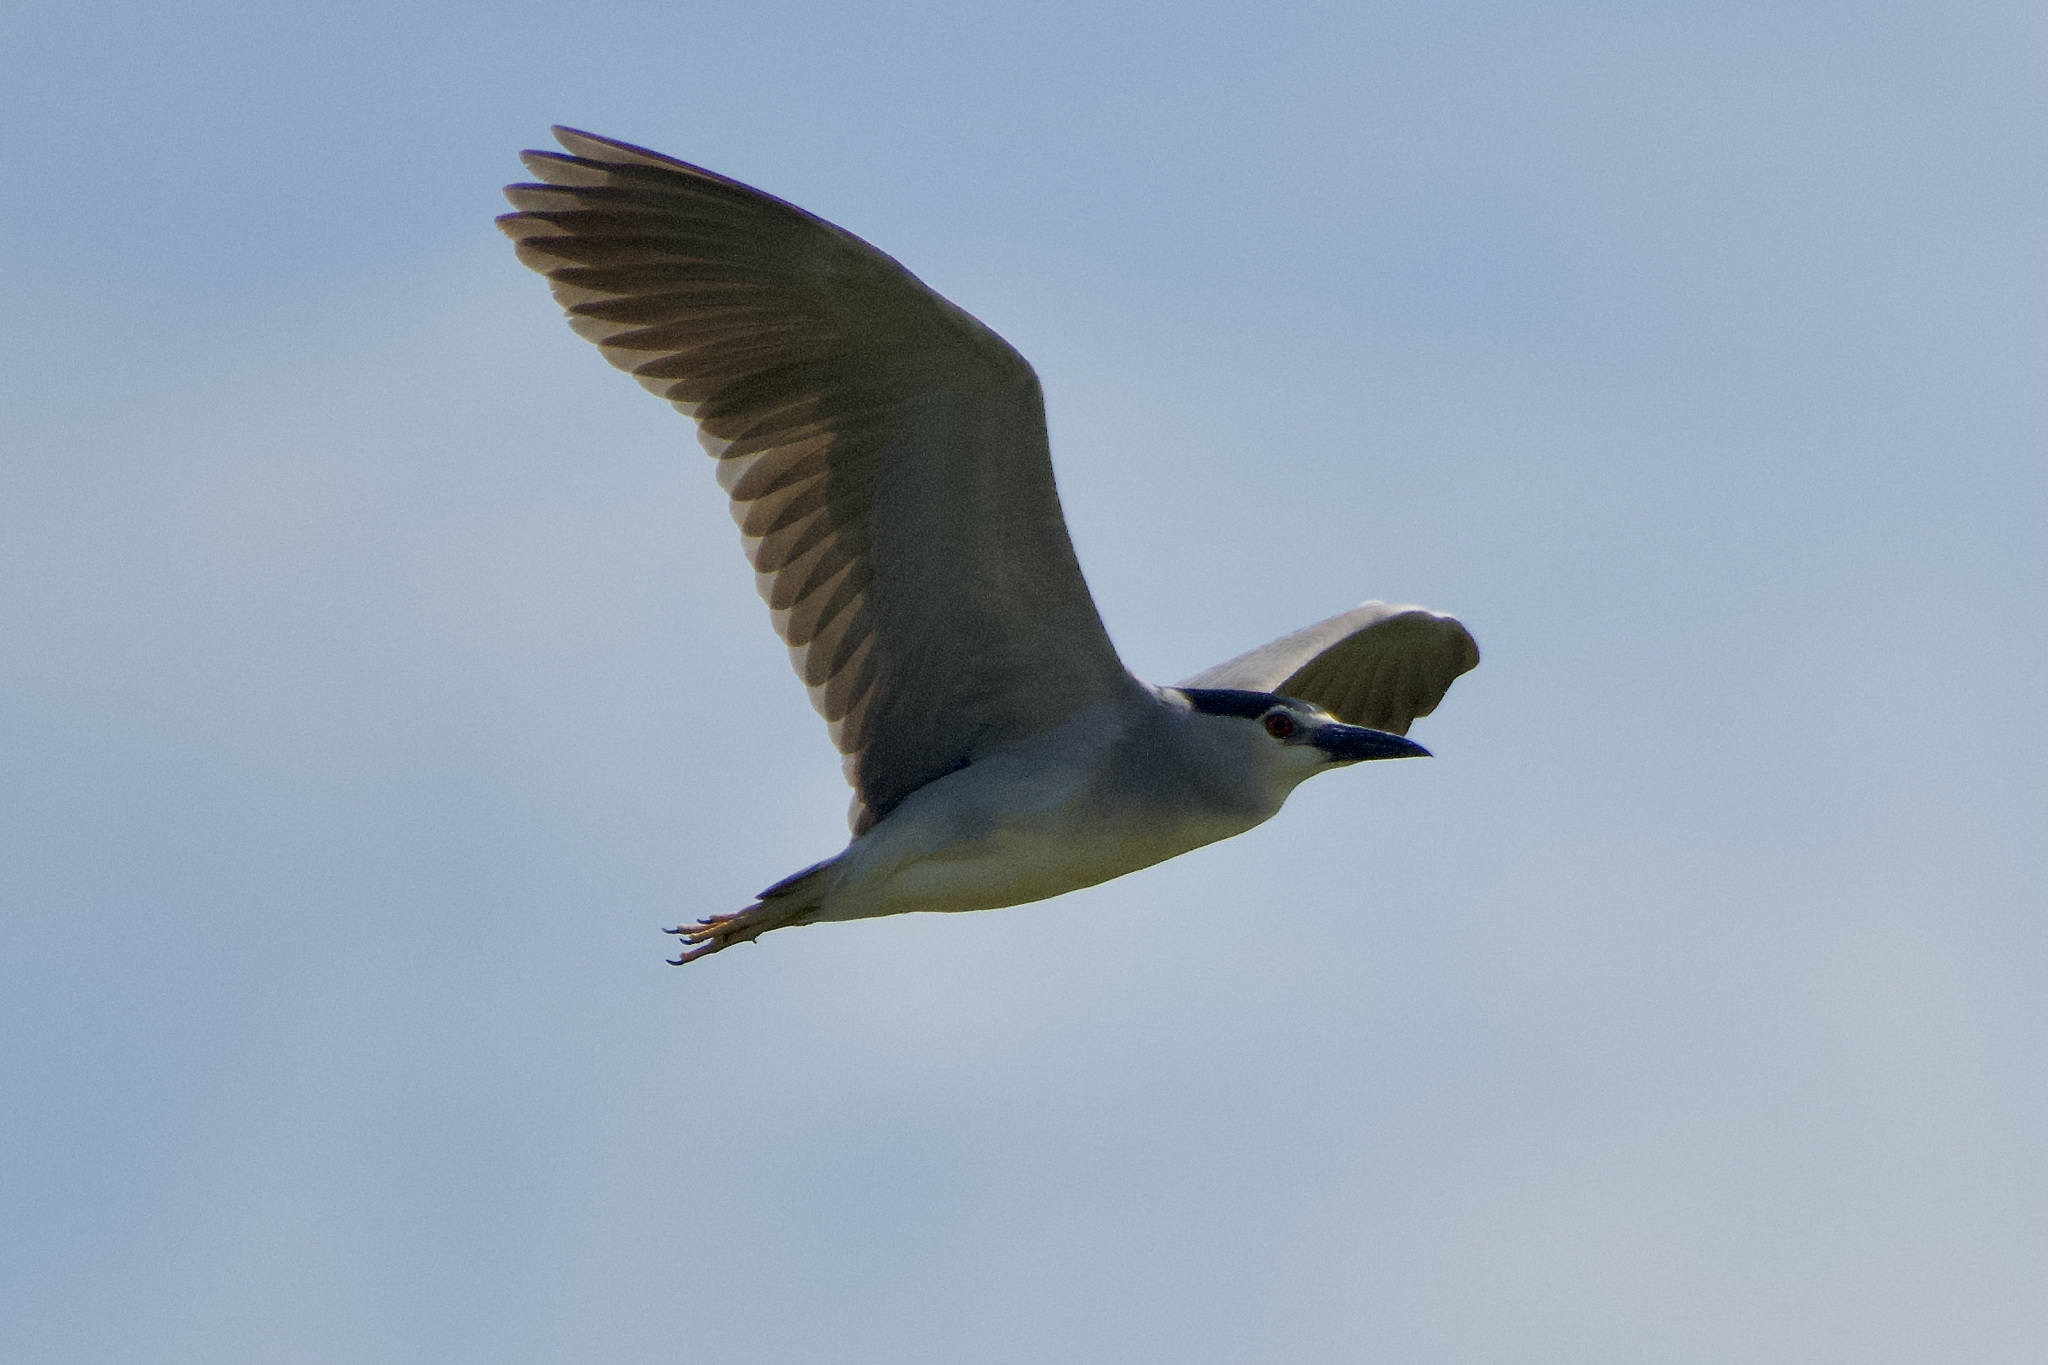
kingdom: Animalia
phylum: Chordata
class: Aves
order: Pelecaniformes
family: Ardeidae
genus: Nycticorax
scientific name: Nycticorax nycticorax
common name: Black-crowned night heron
